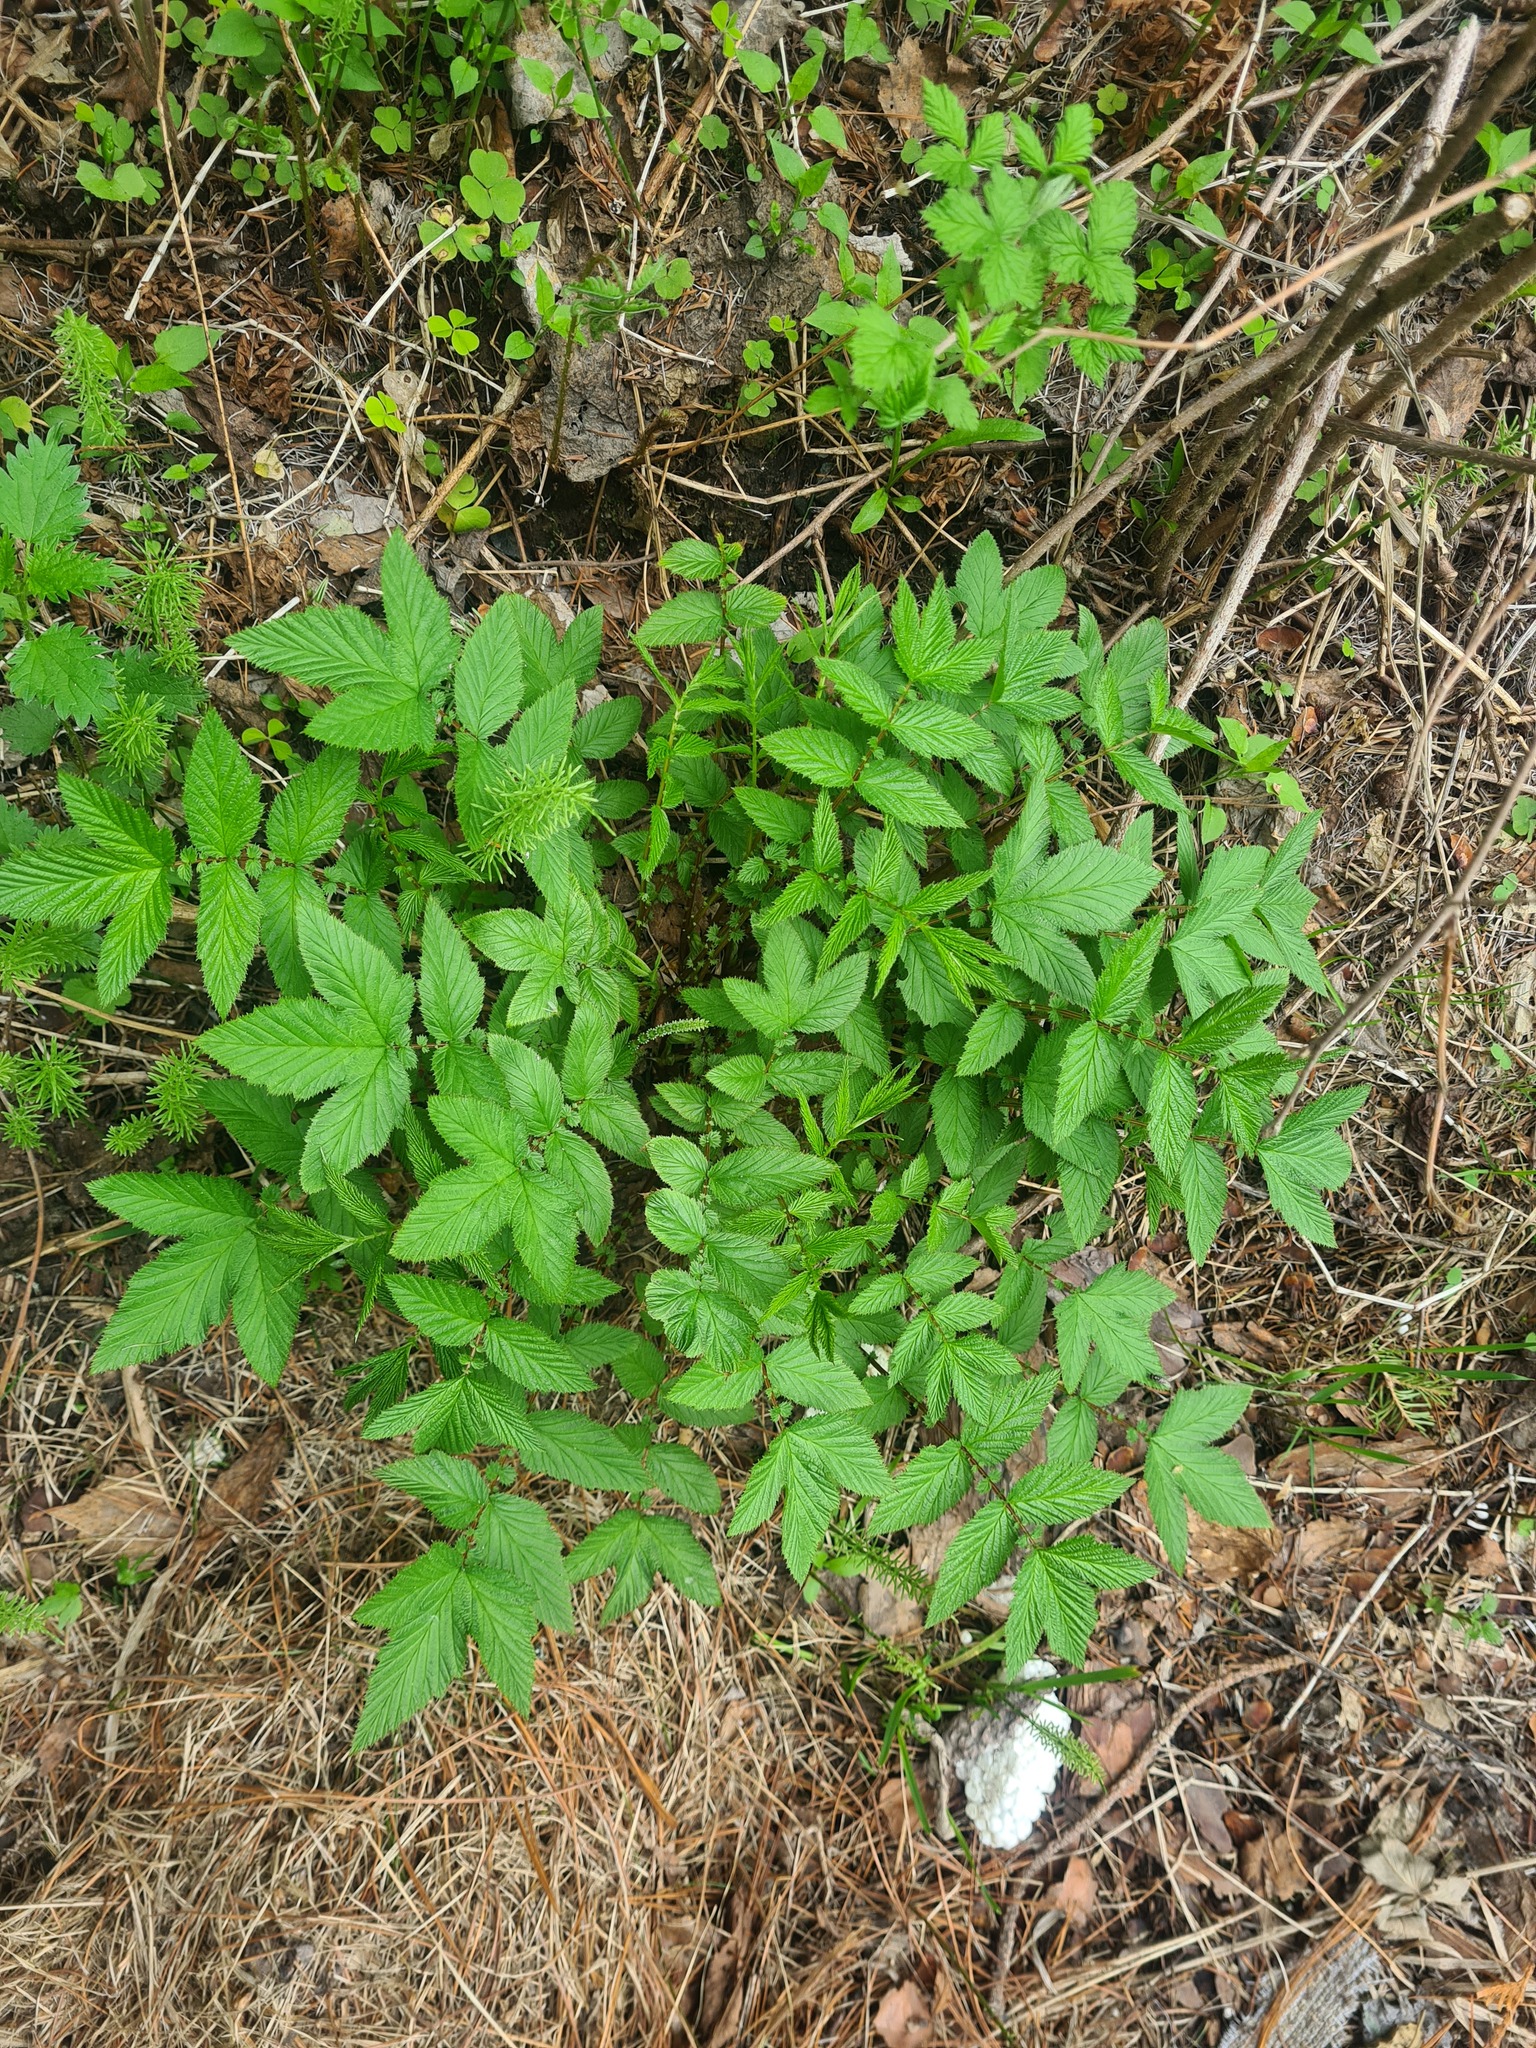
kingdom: Plantae
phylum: Tracheophyta
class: Magnoliopsida
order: Rosales
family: Rosaceae
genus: Filipendula
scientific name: Filipendula ulmaria
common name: Meadowsweet
